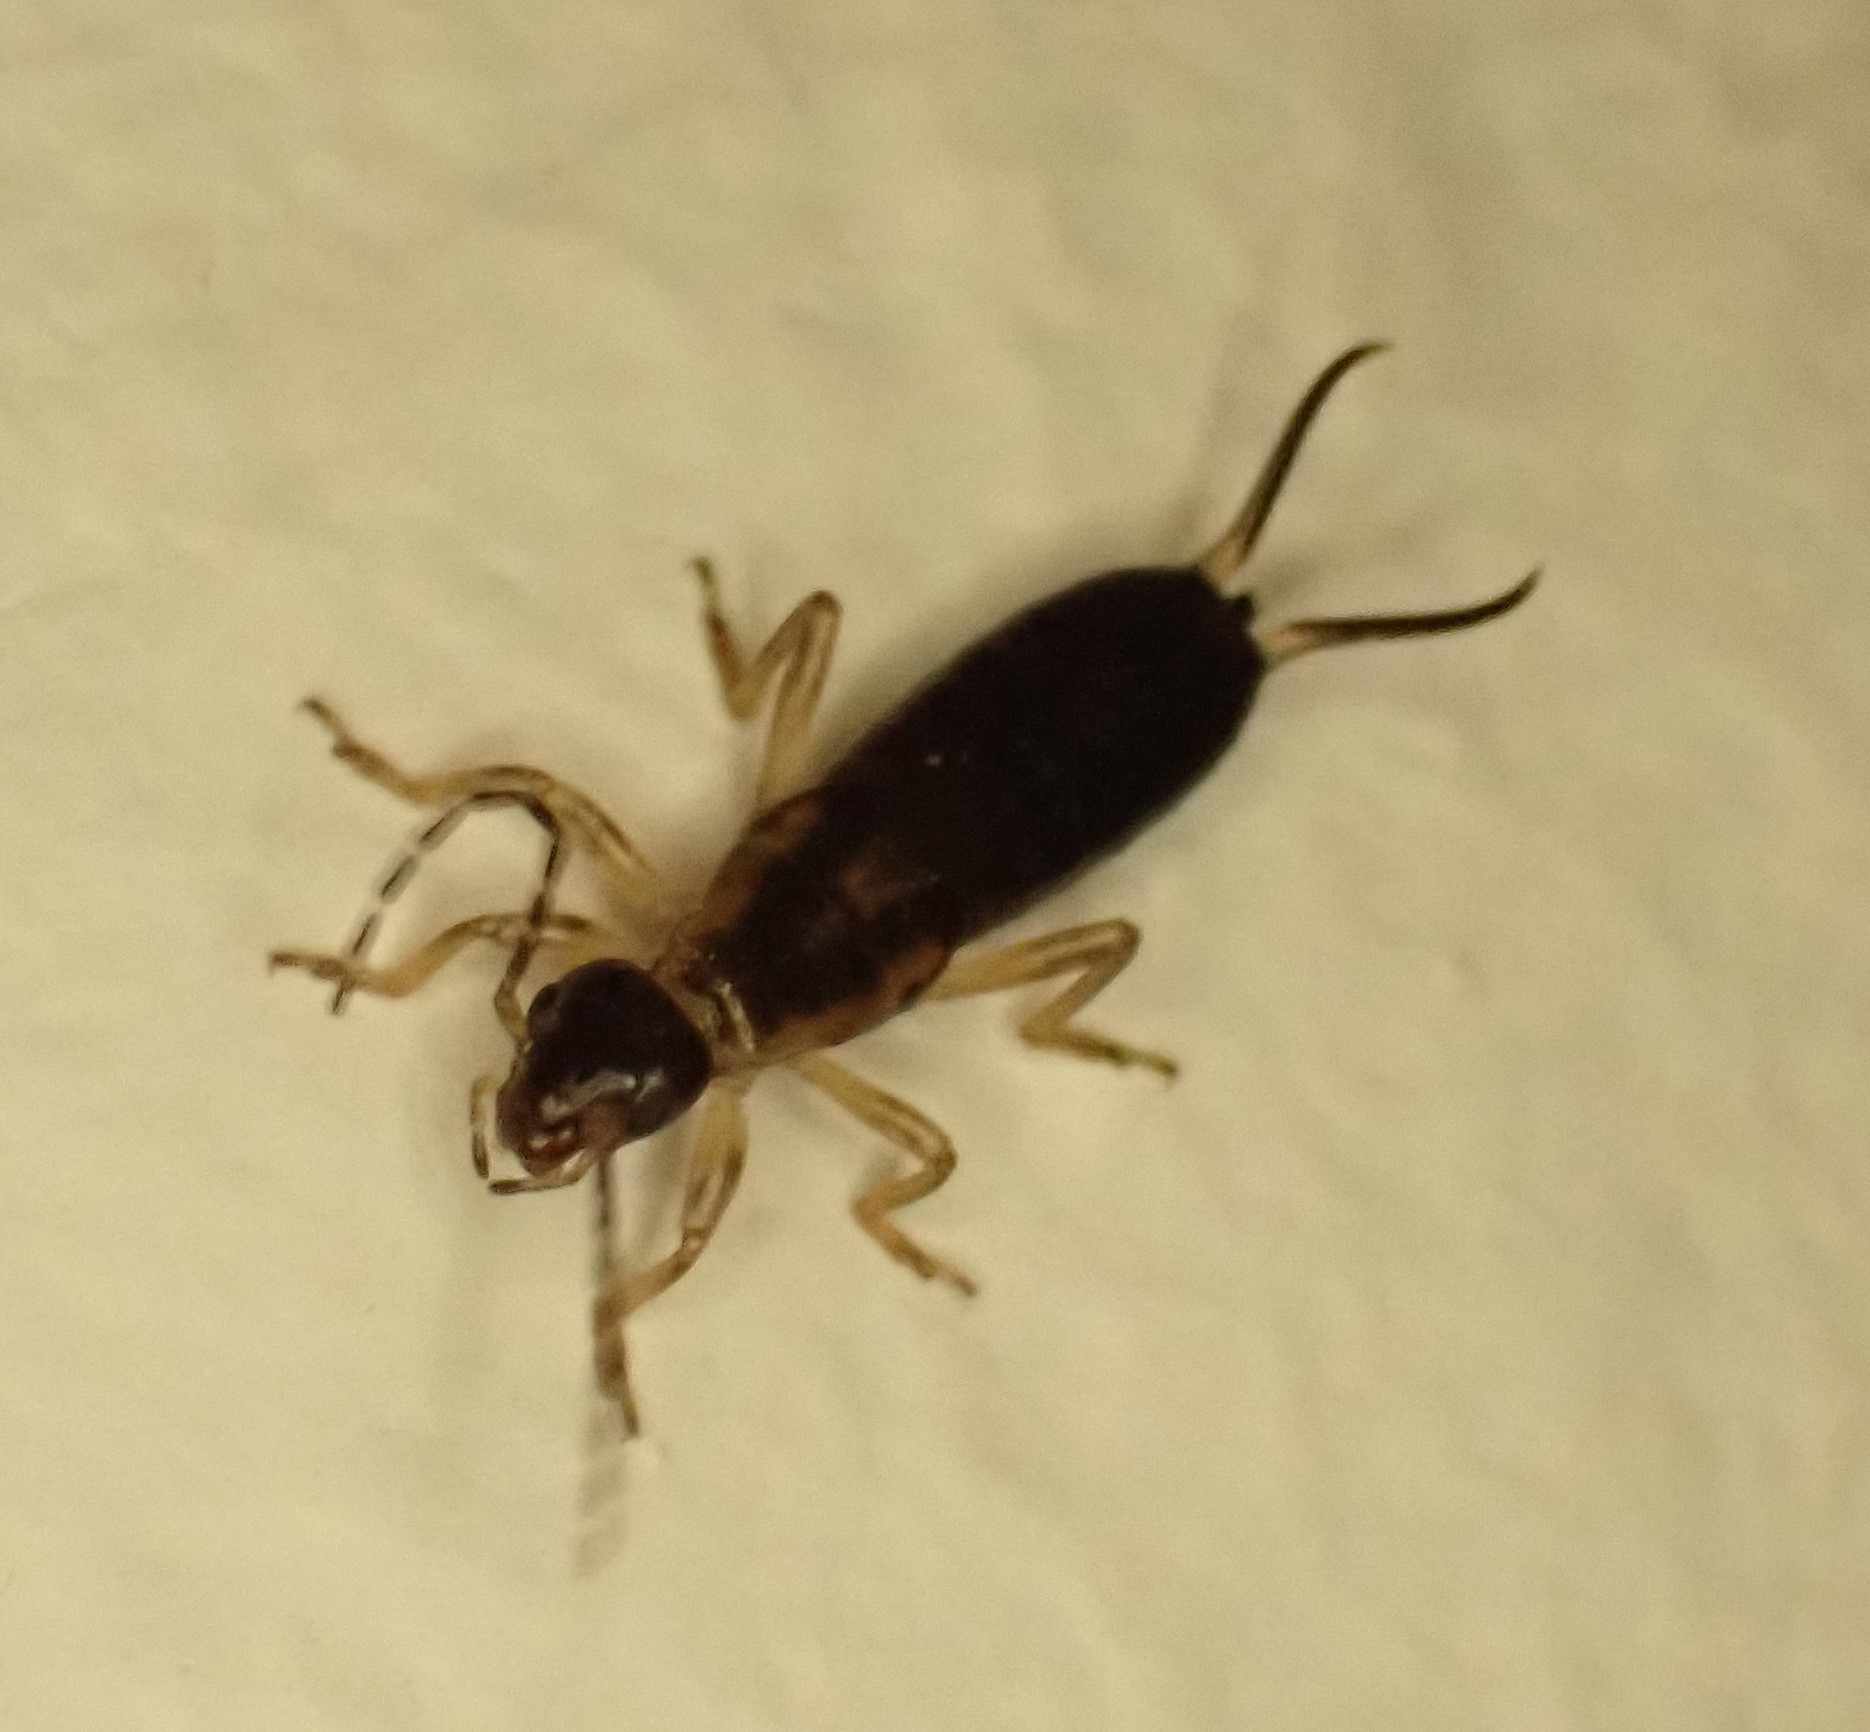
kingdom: Animalia
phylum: Arthropoda
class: Insecta
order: Dermaptera
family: Forficulidae
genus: Forficula
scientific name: Forficula
